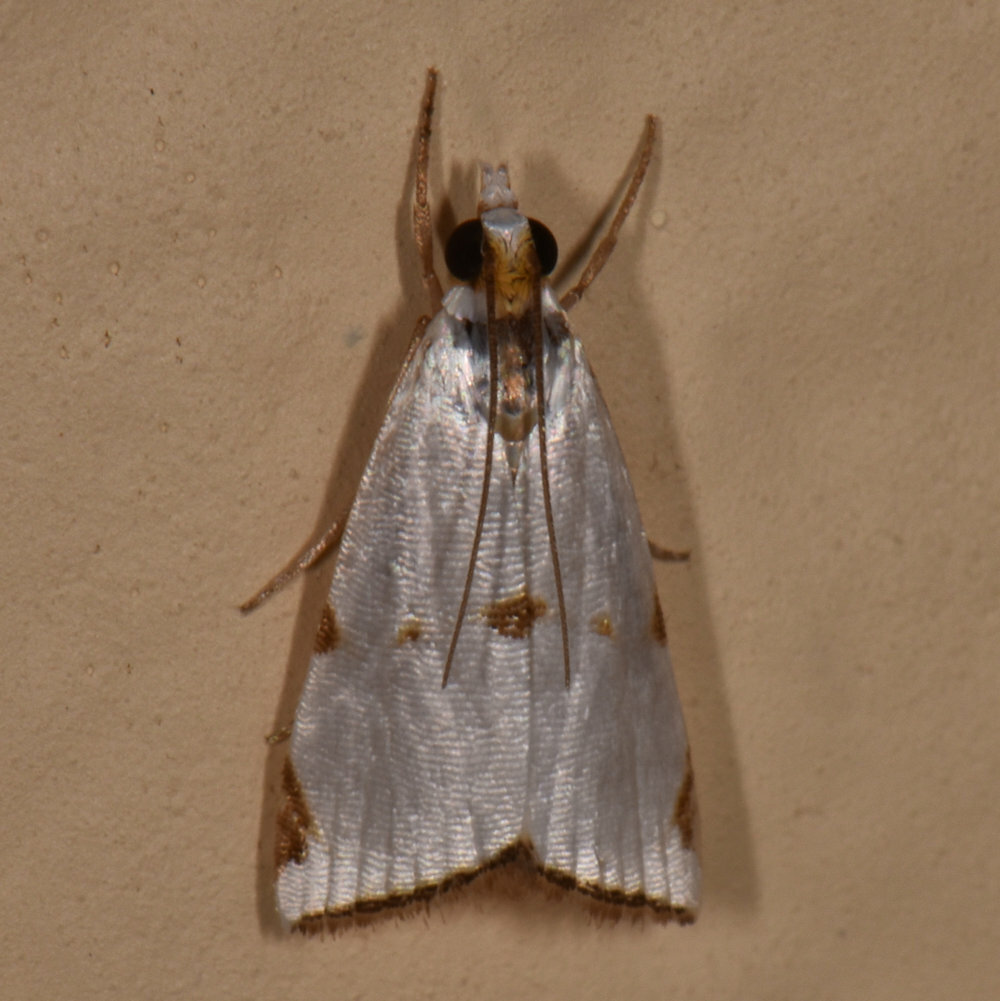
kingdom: Animalia
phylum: Arthropoda
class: Insecta
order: Lepidoptera
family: Crambidae
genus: Argyria
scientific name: Argyria lacteella
